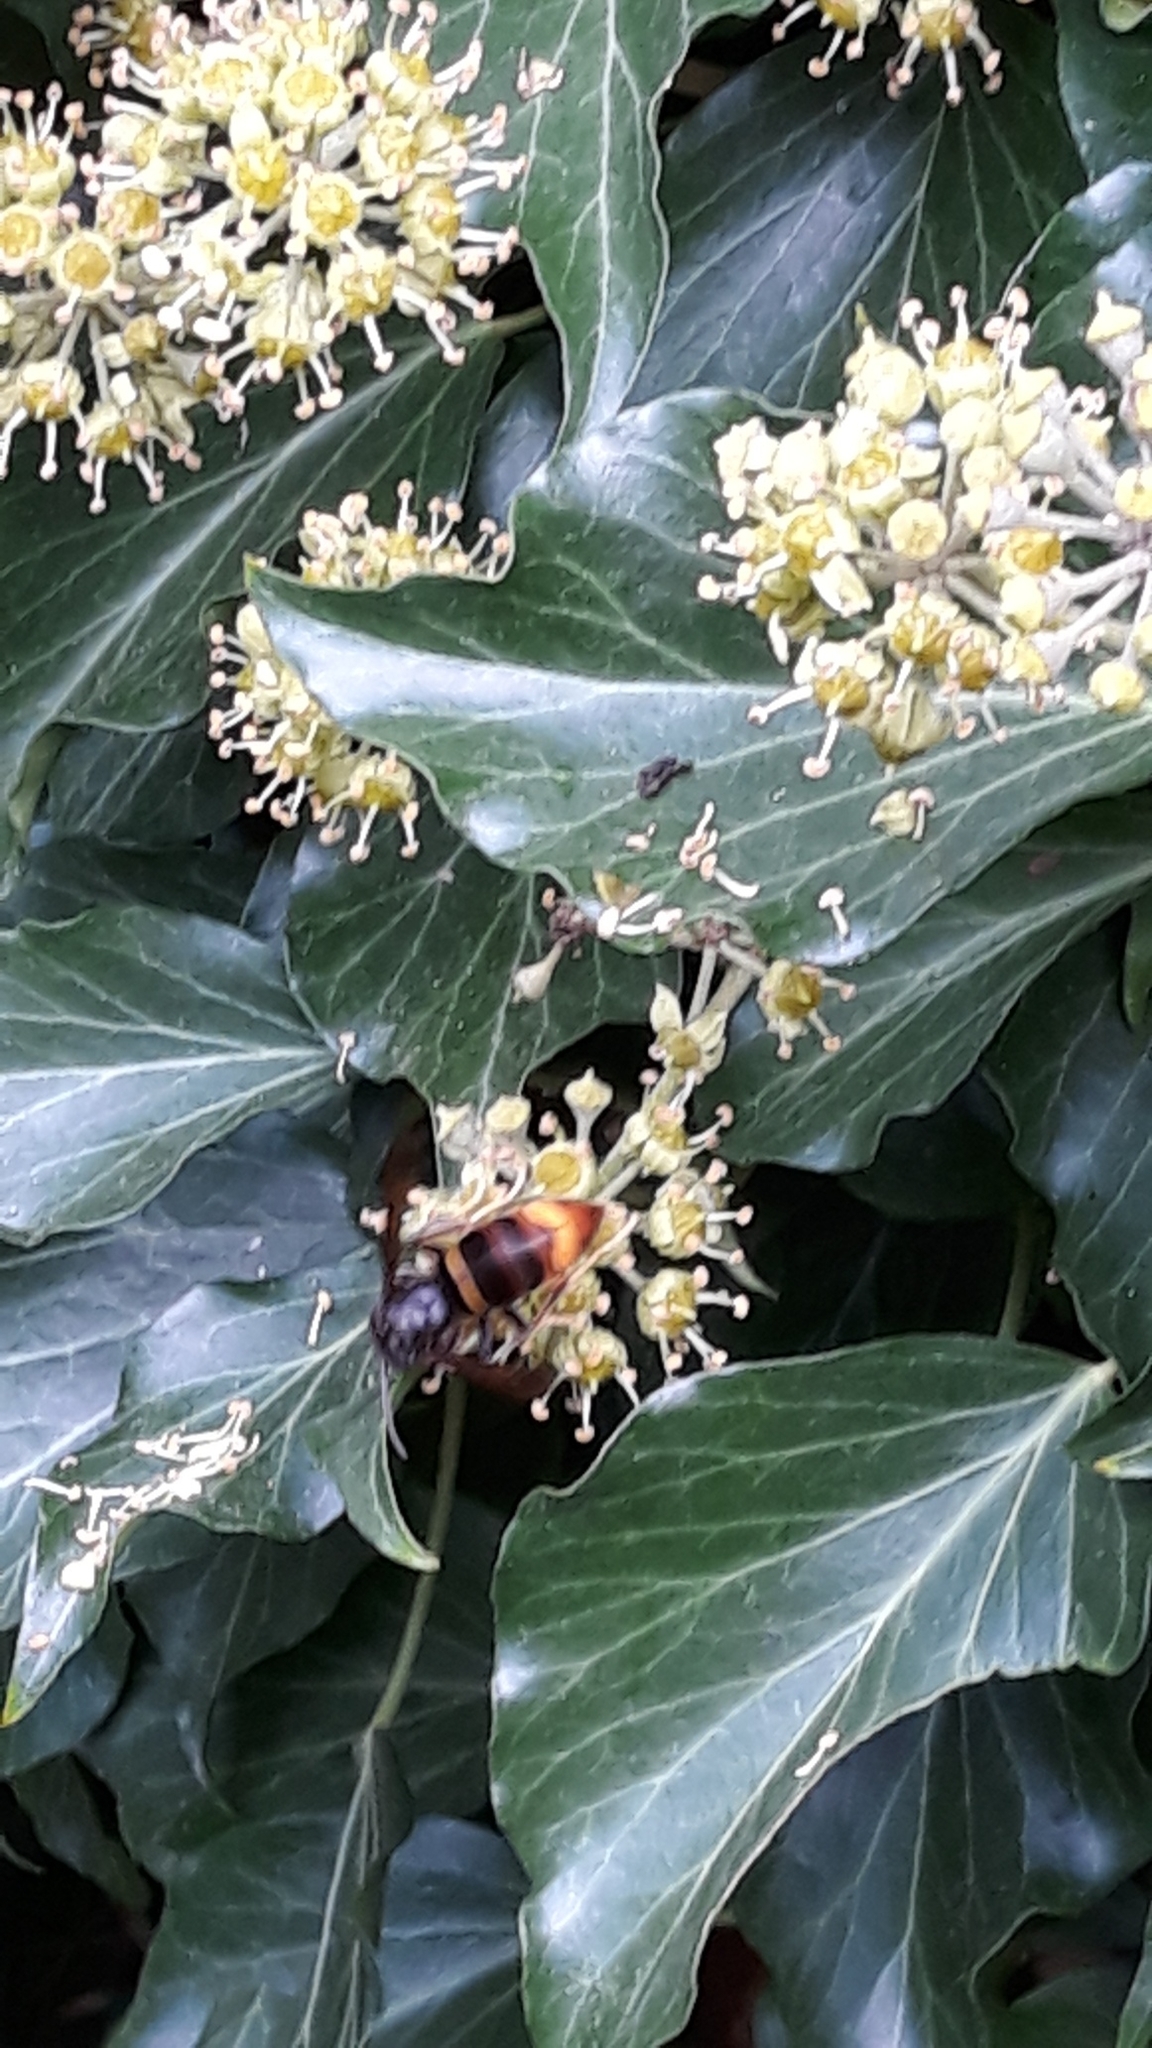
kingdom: Animalia
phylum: Arthropoda
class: Insecta
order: Hymenoptera
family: Vespidae
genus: Vespa
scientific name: Vespa velutina
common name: Asian hornet
